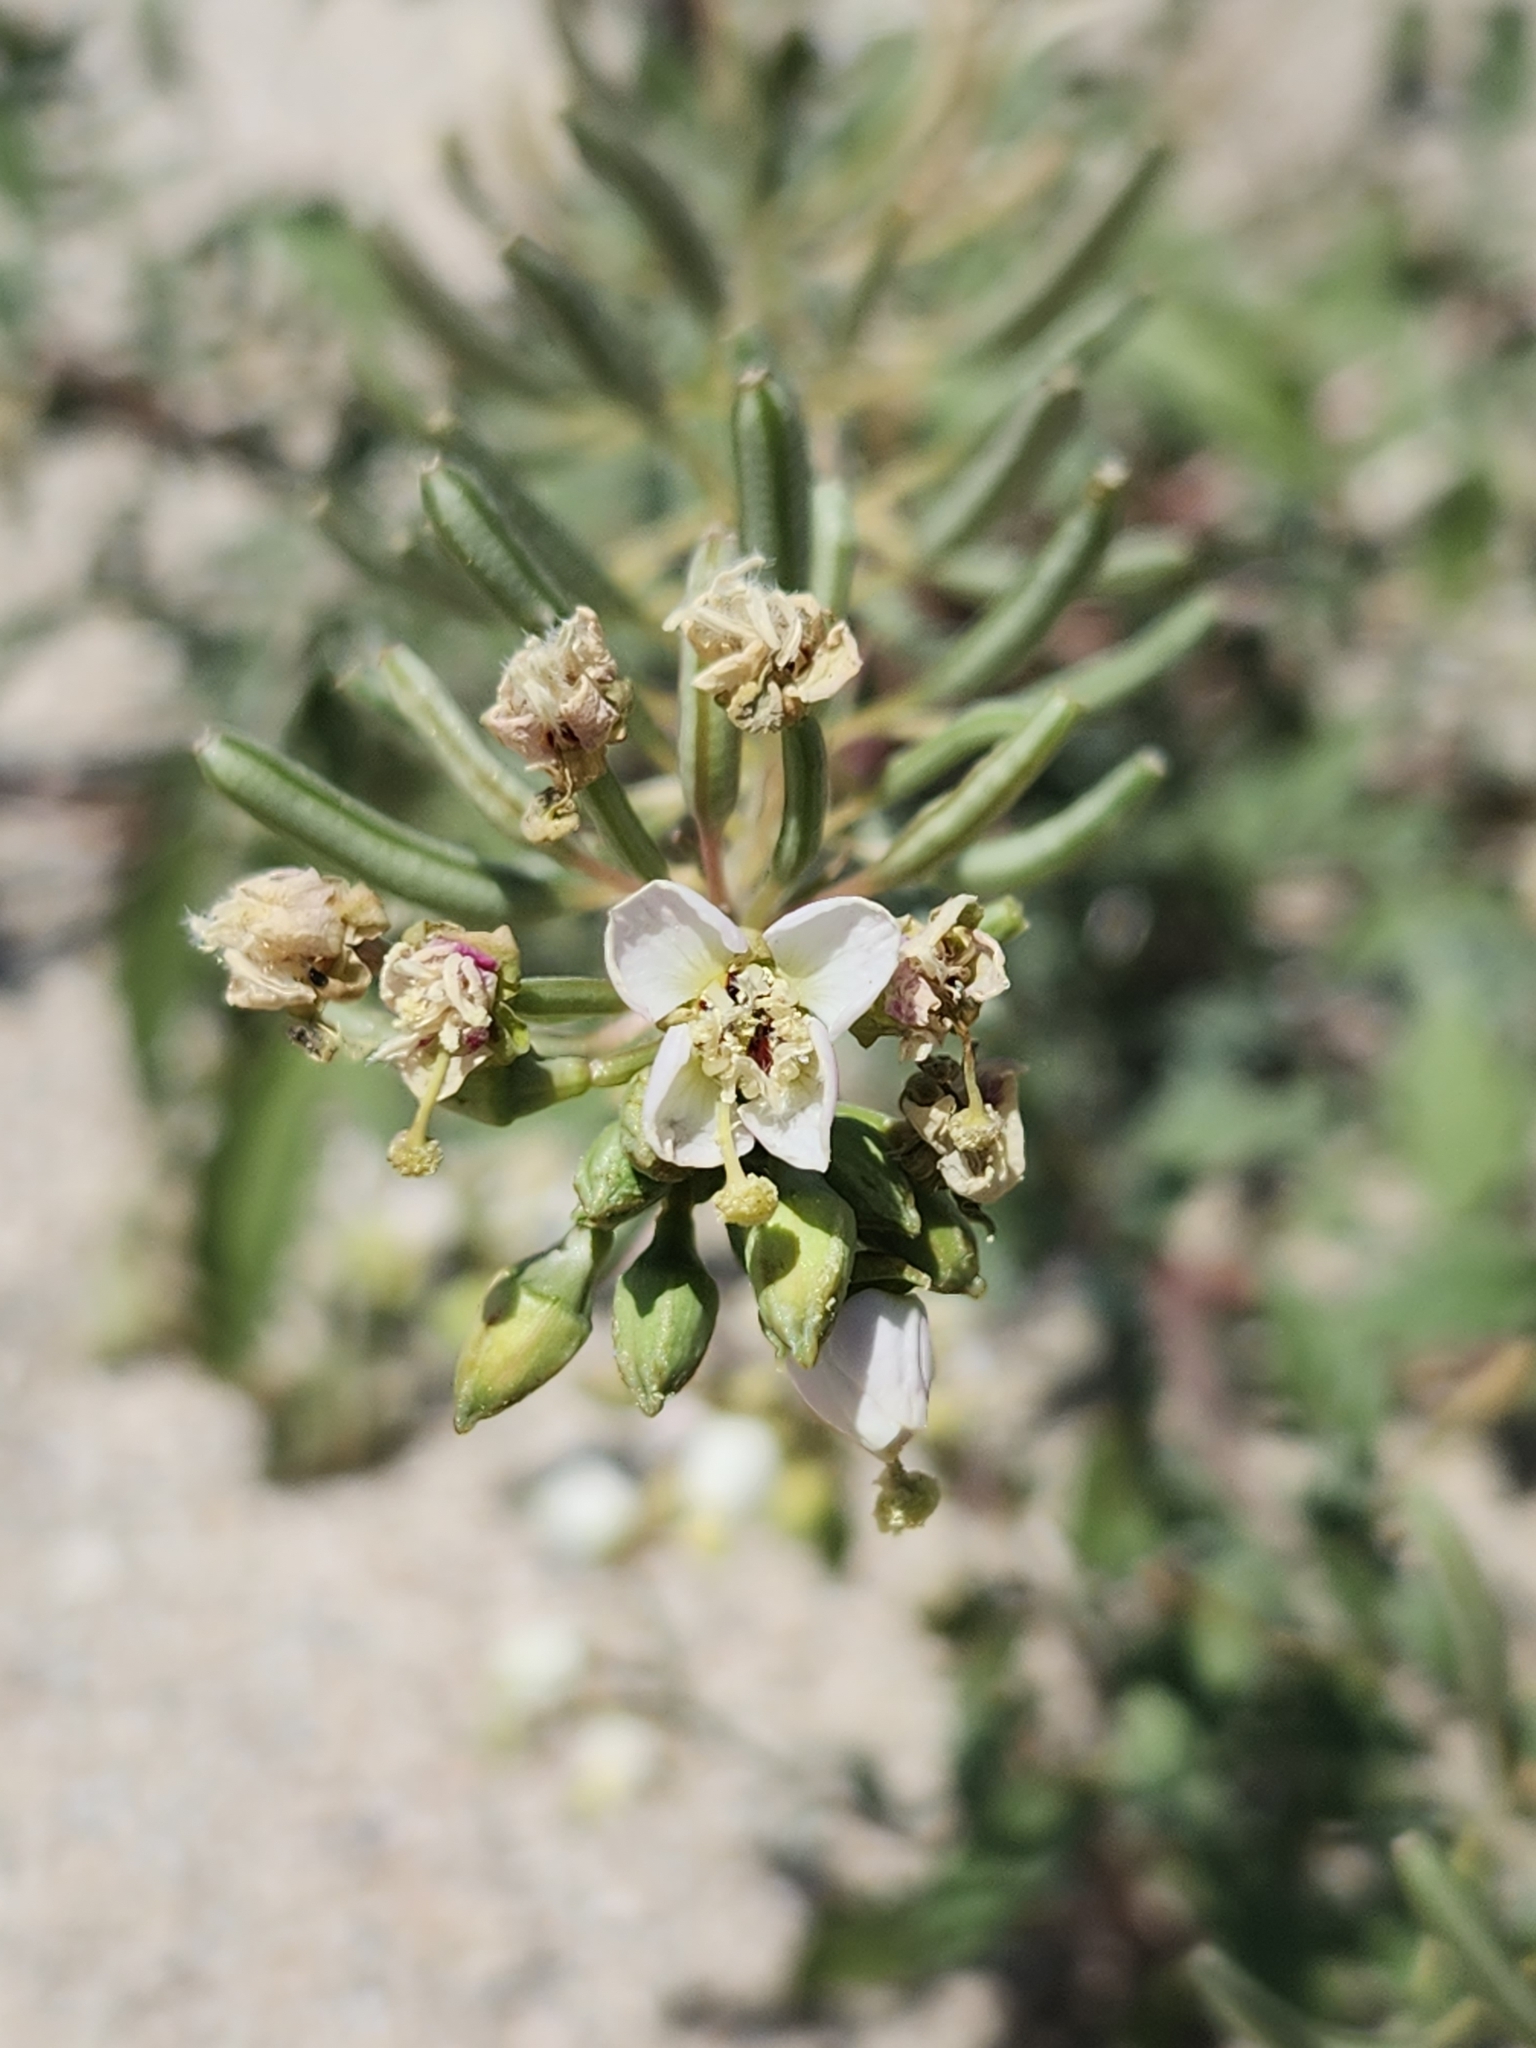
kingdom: Plantae
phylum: Tracheophyta
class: Magnoliopsida
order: Myrtales
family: Onagraceae
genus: Chylismia
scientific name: Chylismia claviformis
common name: Browneyes
